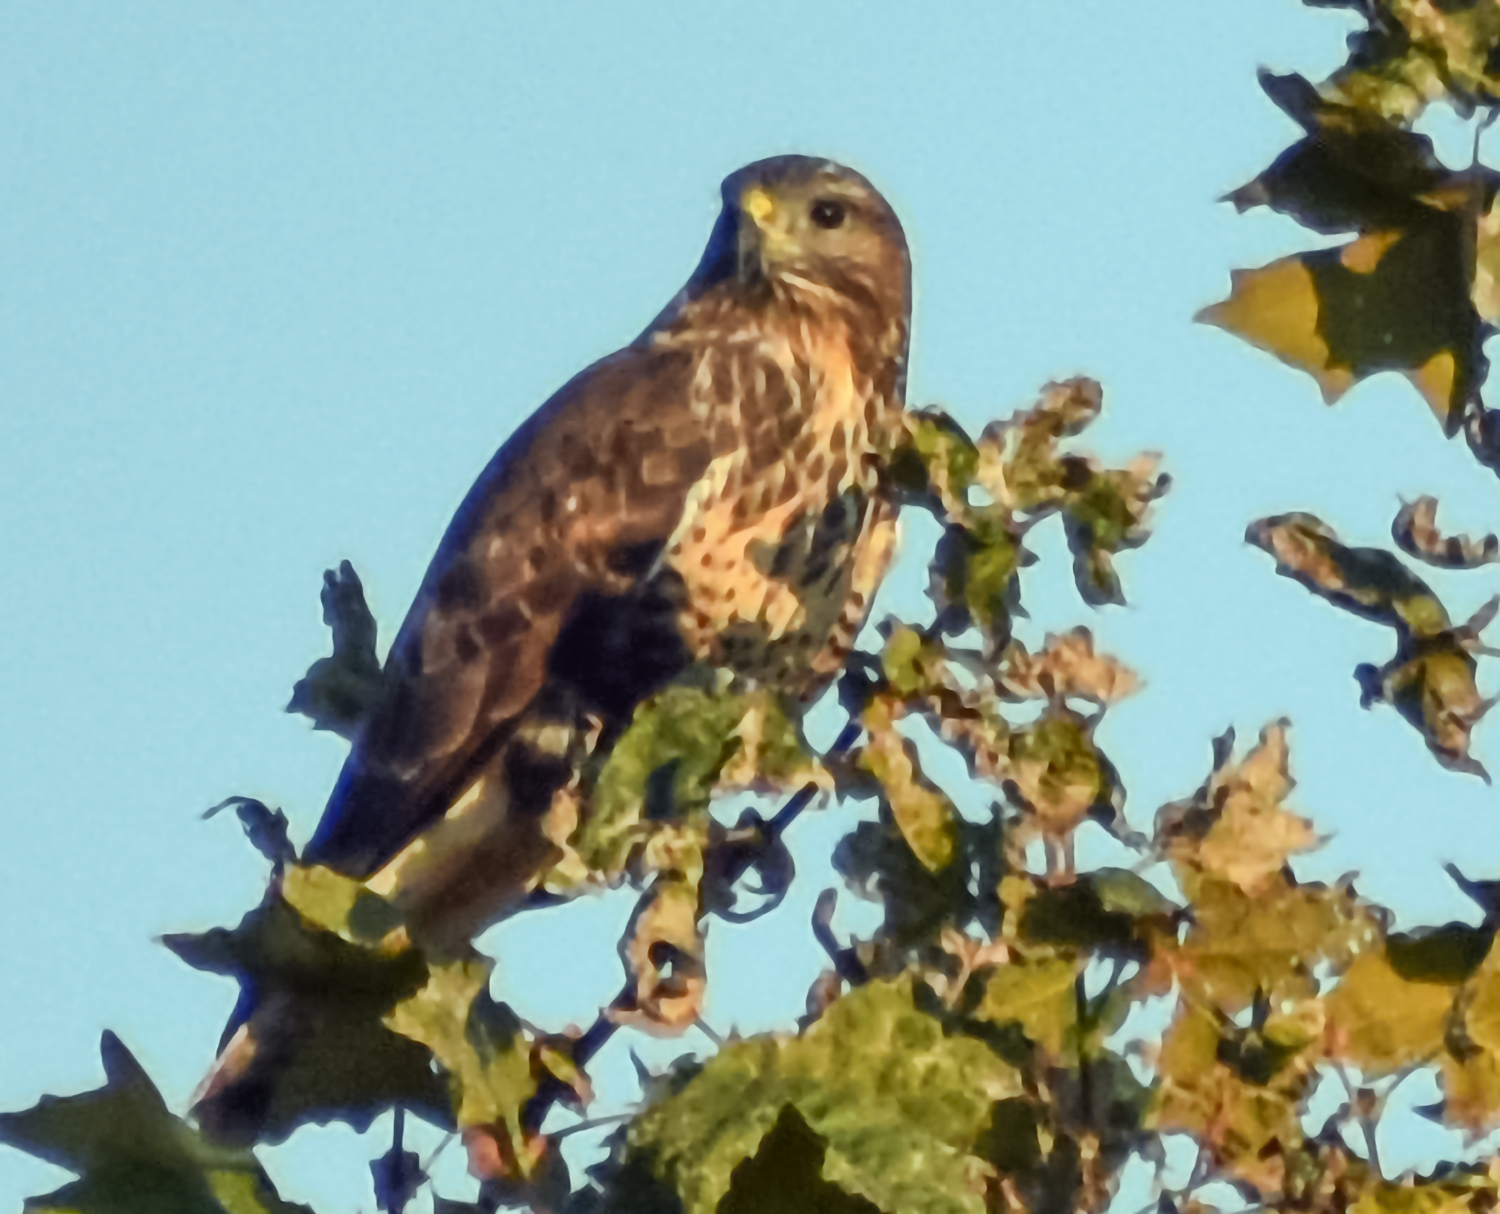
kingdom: Animalia
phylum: Chordata
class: Aves
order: Accipitriformes
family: Accipitridae
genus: Buteo
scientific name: Buteo buteo
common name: Common buzzard
